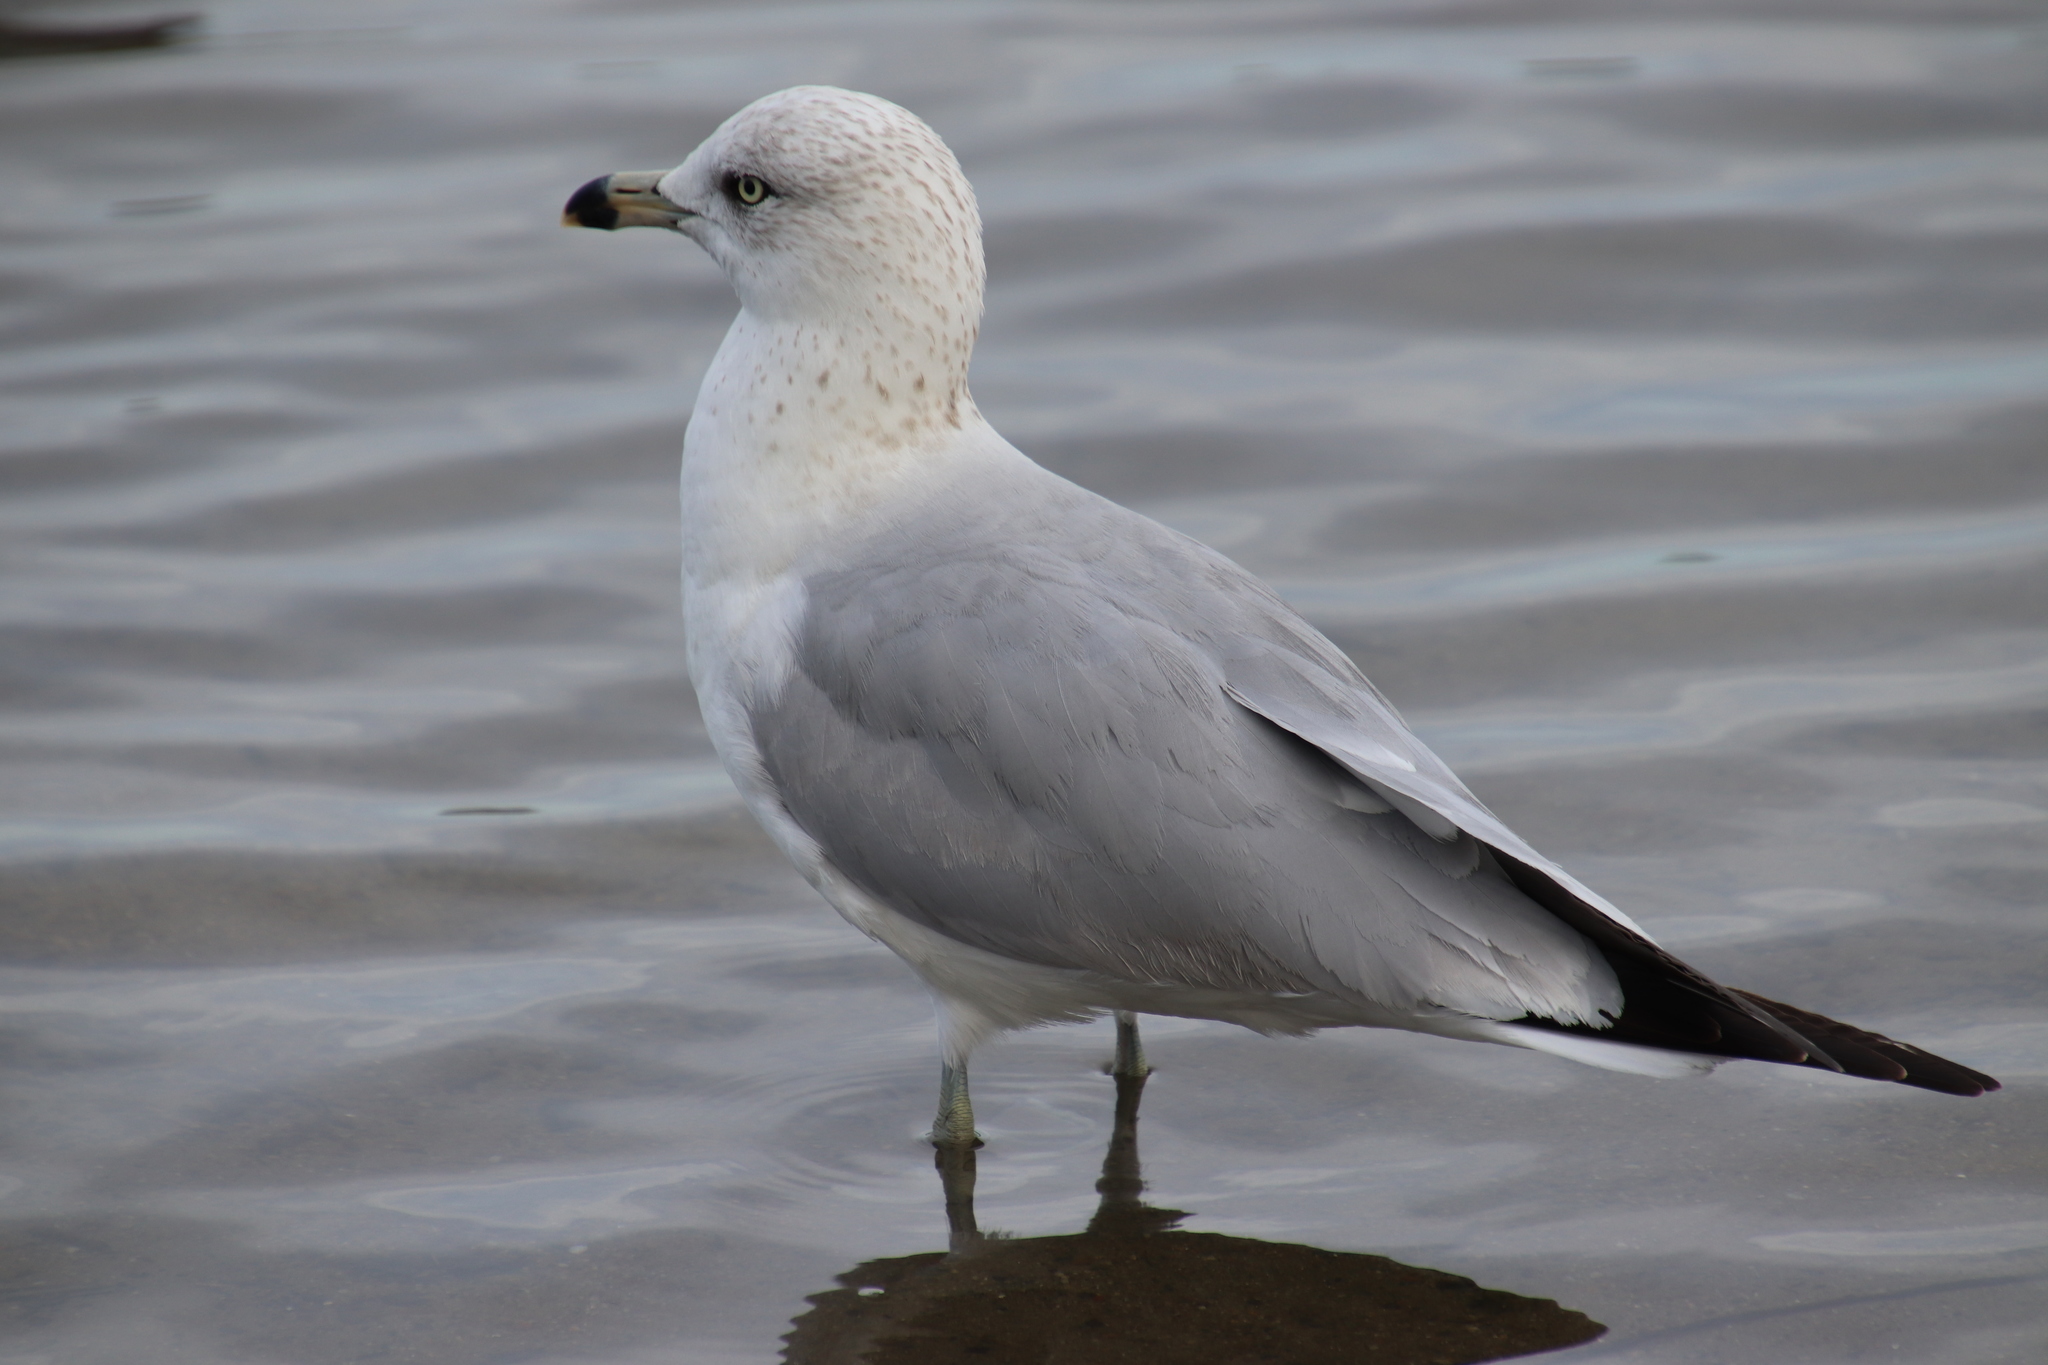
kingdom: Animalia
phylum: Chordata
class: Aves
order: Charadriiformes
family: Laridae
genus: Larus
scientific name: Larus delawarensis
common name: Ring-billed gull
